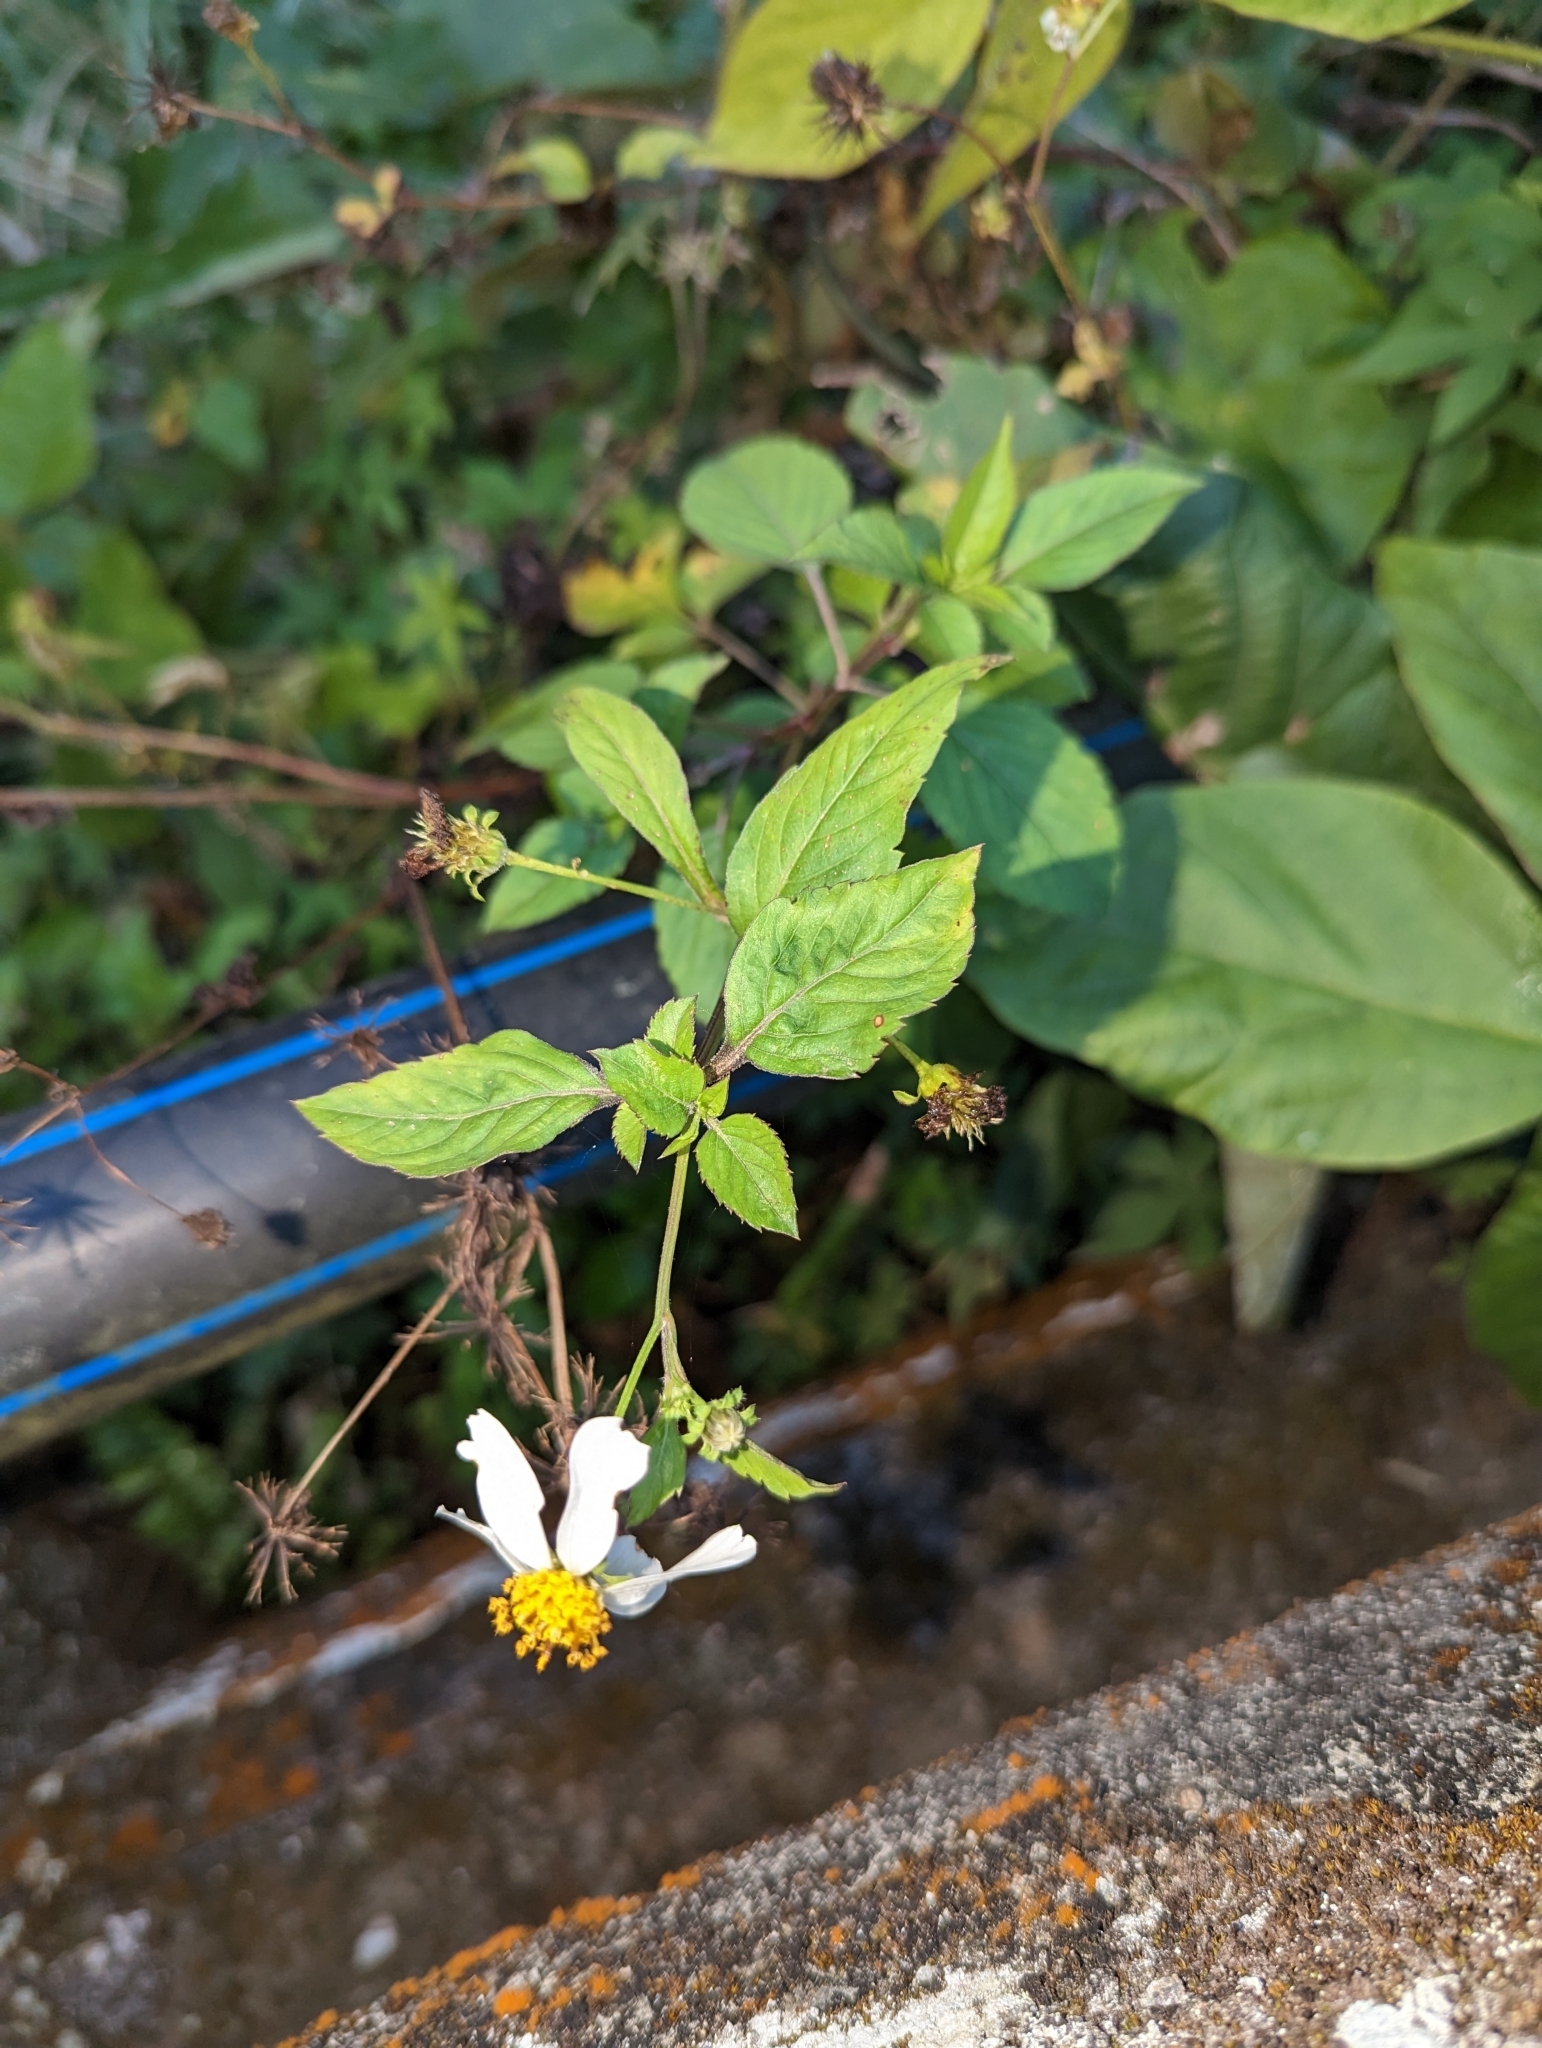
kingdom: Plantae
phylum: Tracheophyta
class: Magnoliopsida
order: Asterales
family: Asteraceae
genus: Bidens
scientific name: Bidens alba
